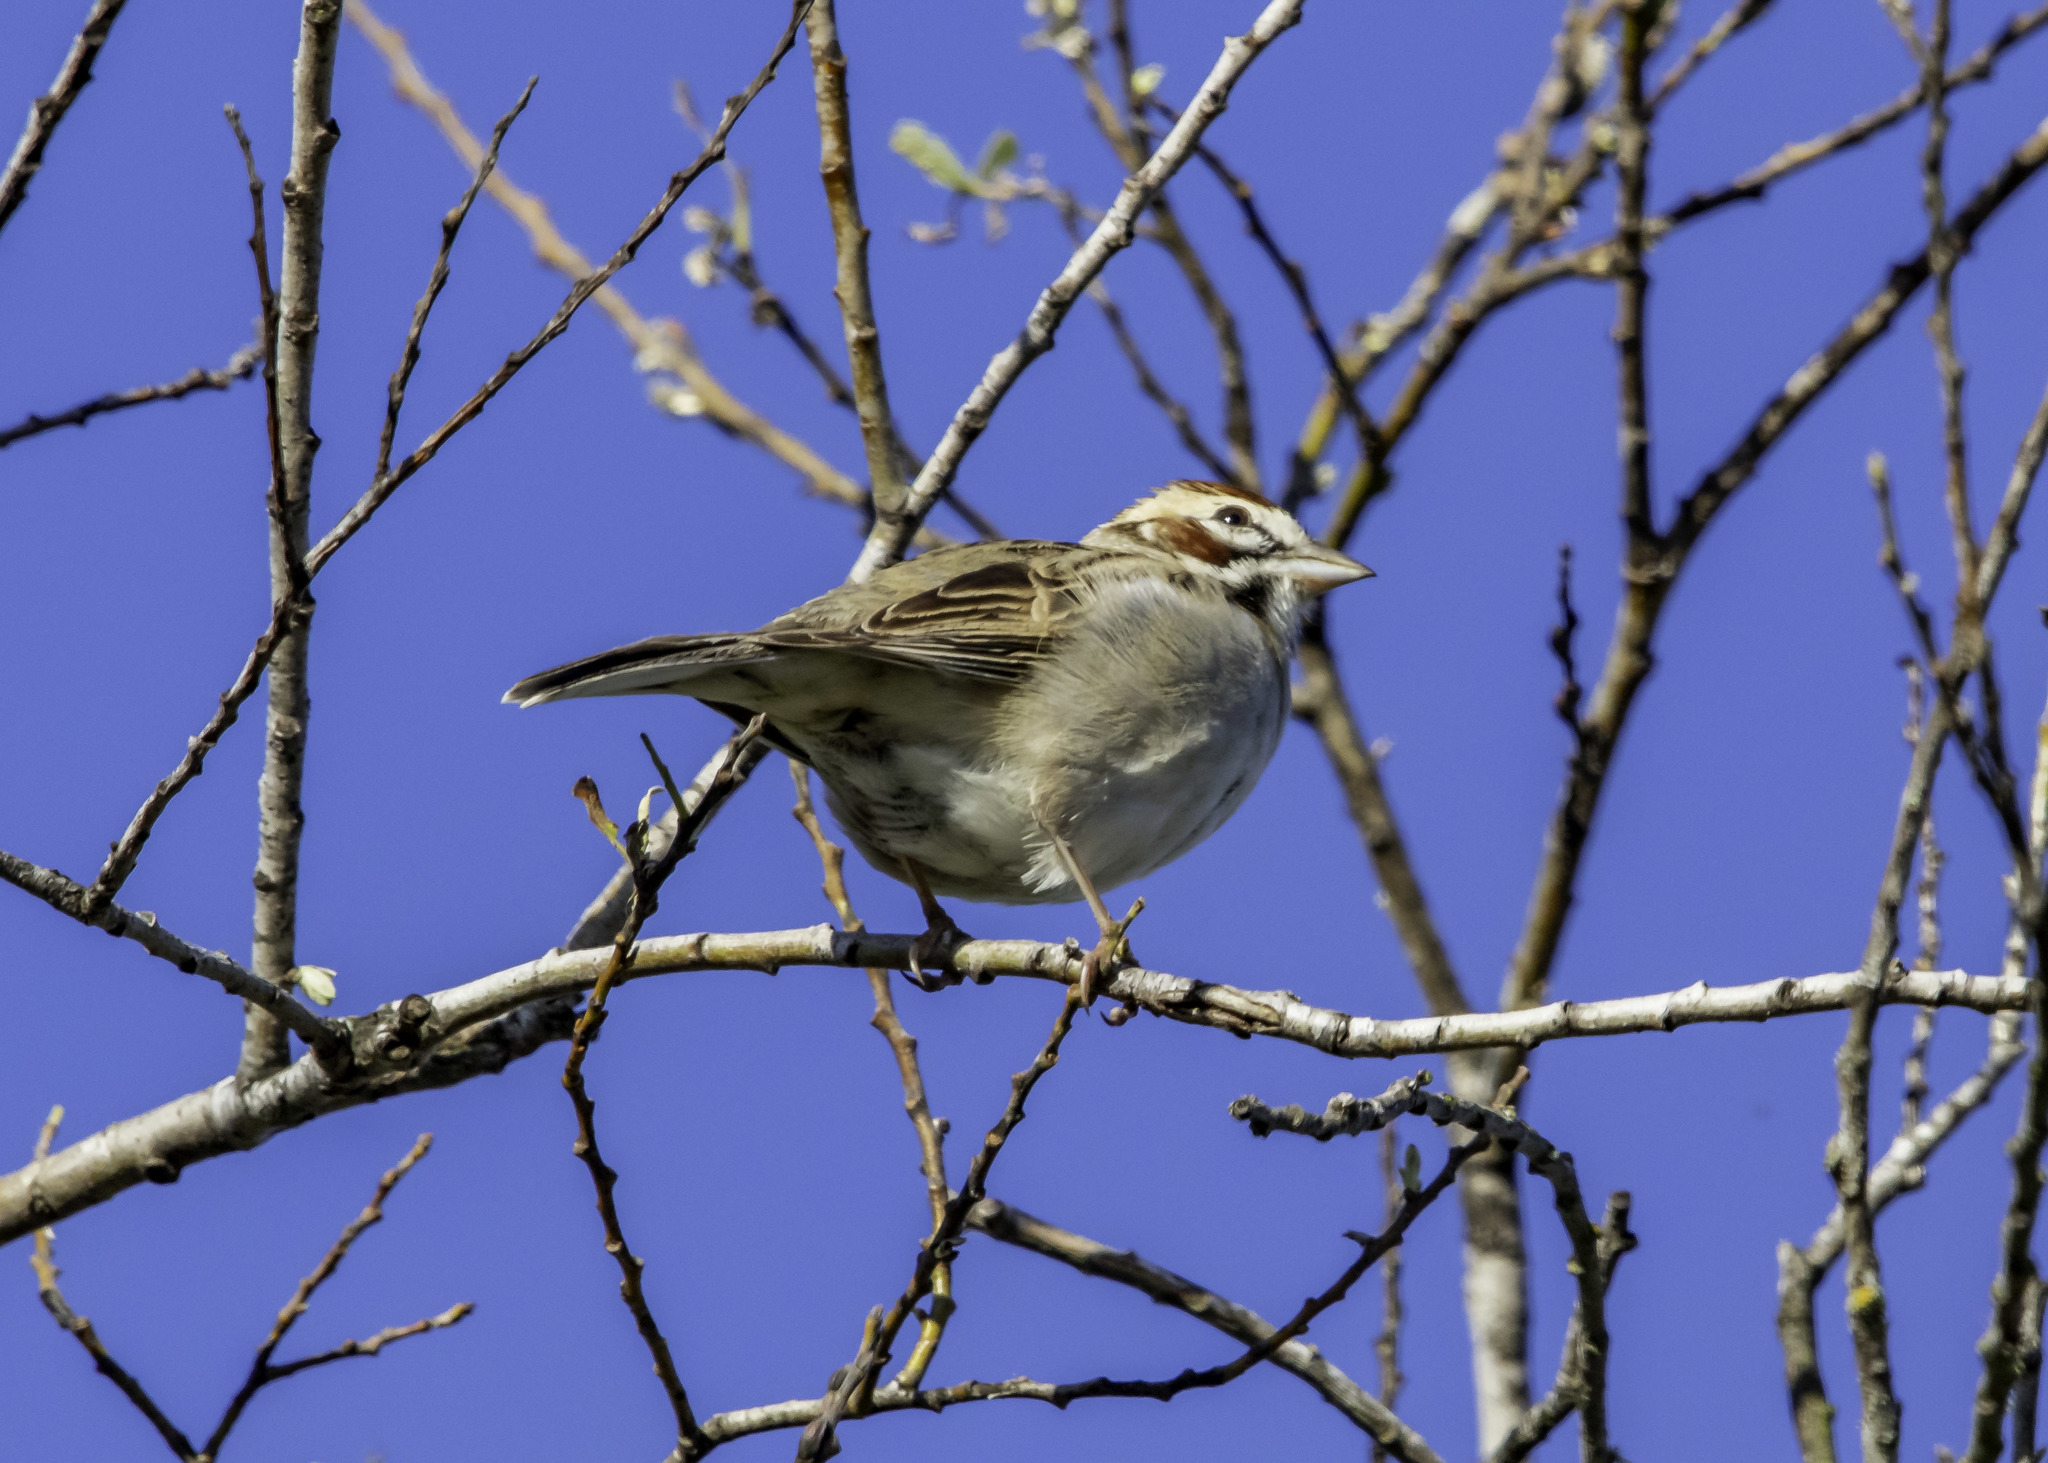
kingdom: Animalia
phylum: Chordata
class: Aves
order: Passeriformes
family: Passerellidae
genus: Chondestes
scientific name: Chondestes grammacus
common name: Lark sparrow
